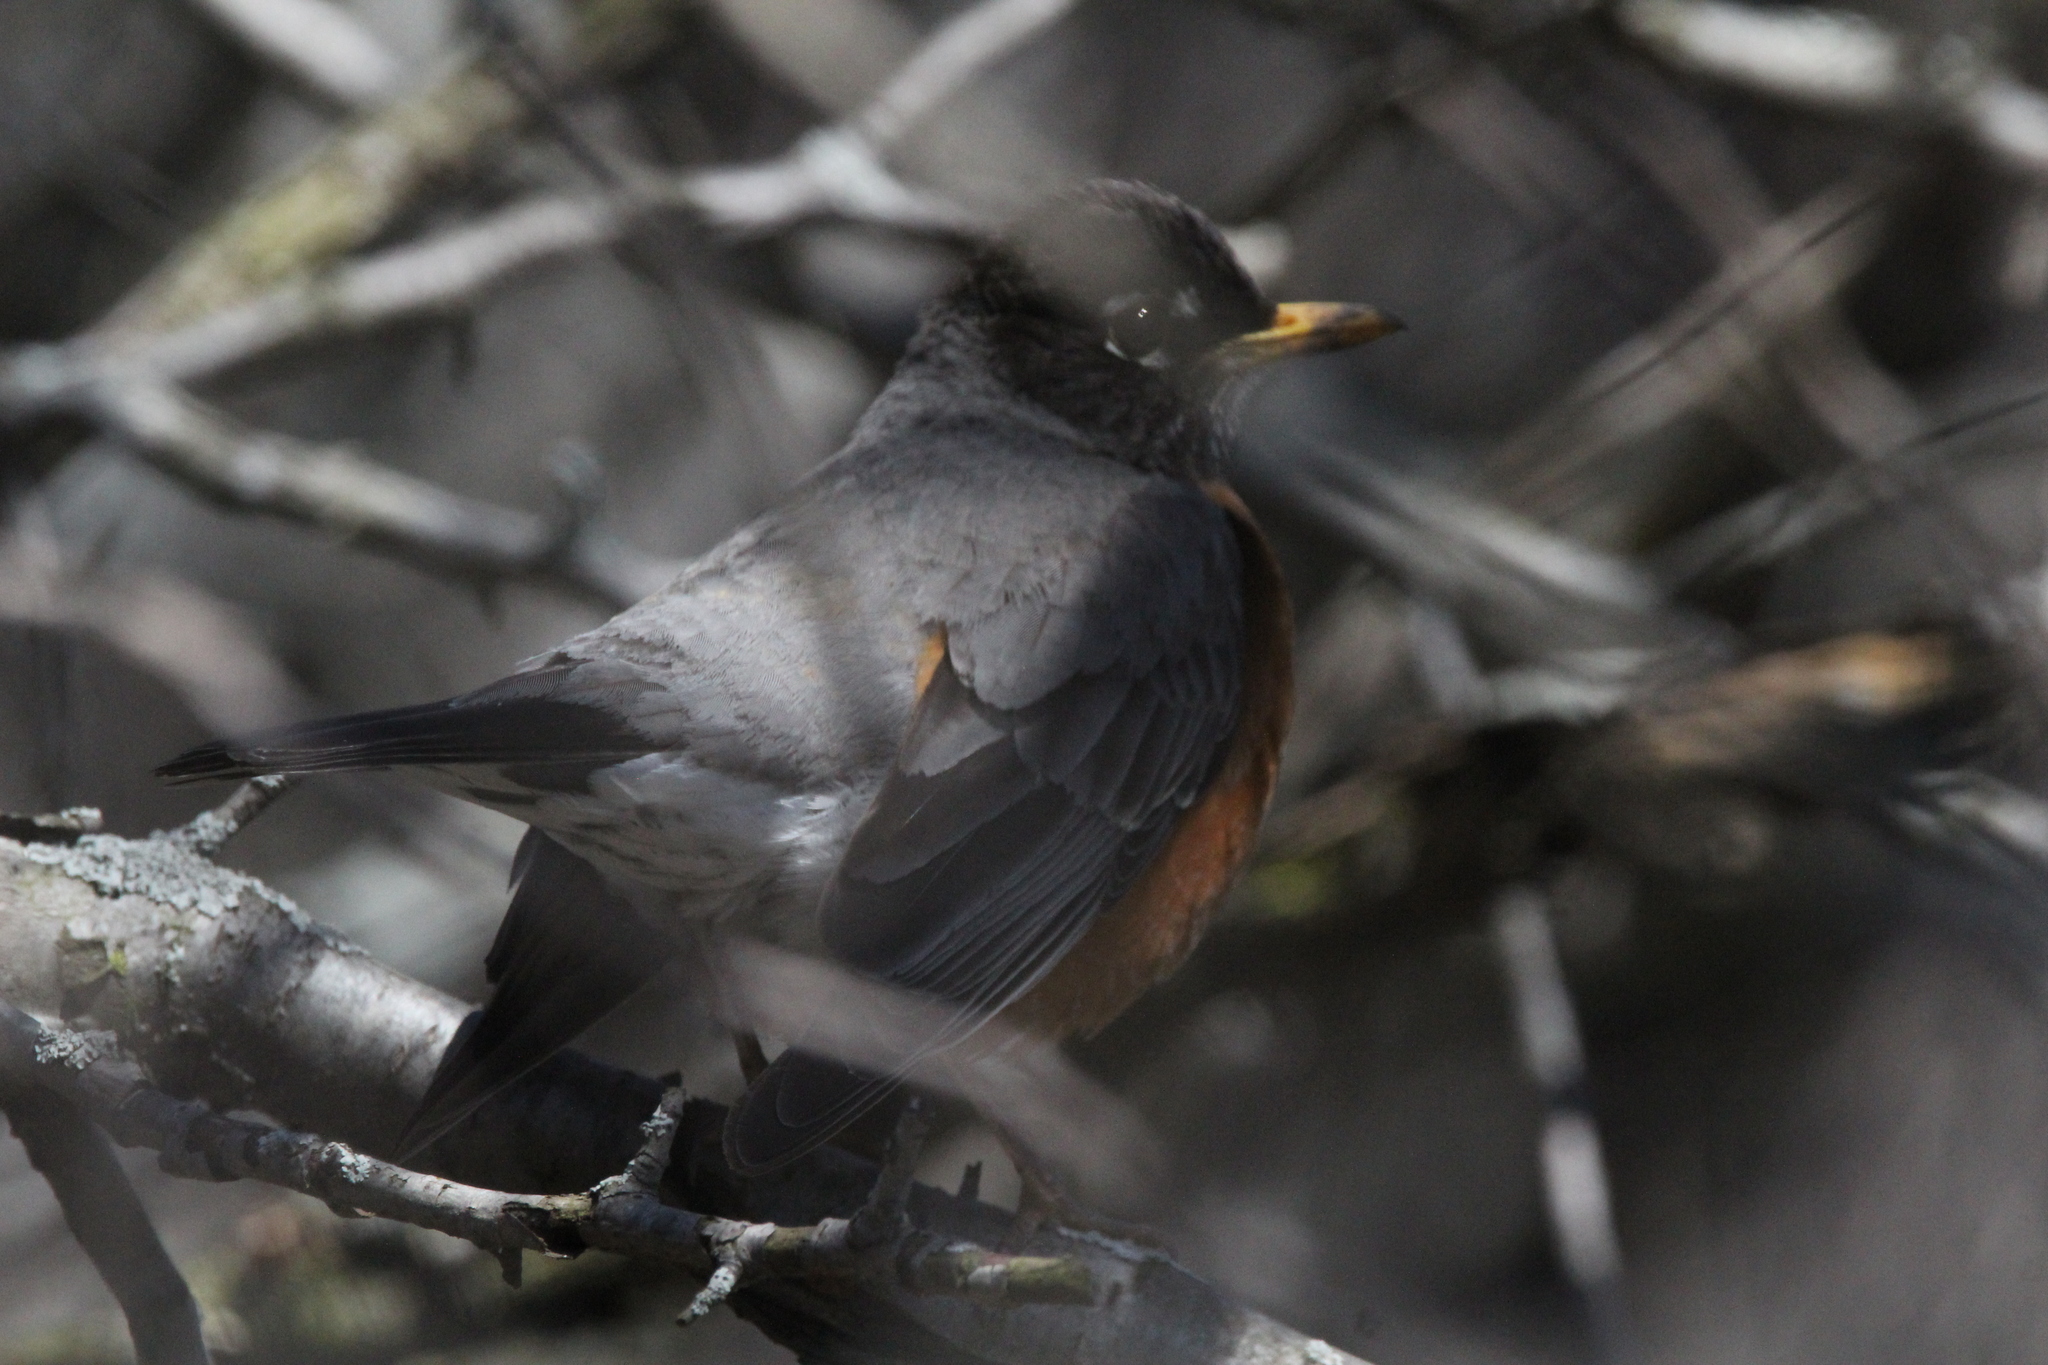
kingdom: Animalia
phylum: Chordata
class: Aves
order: Passeriformes
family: Turdidae
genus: Turdus
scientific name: Turdus migratorius
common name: American robin
